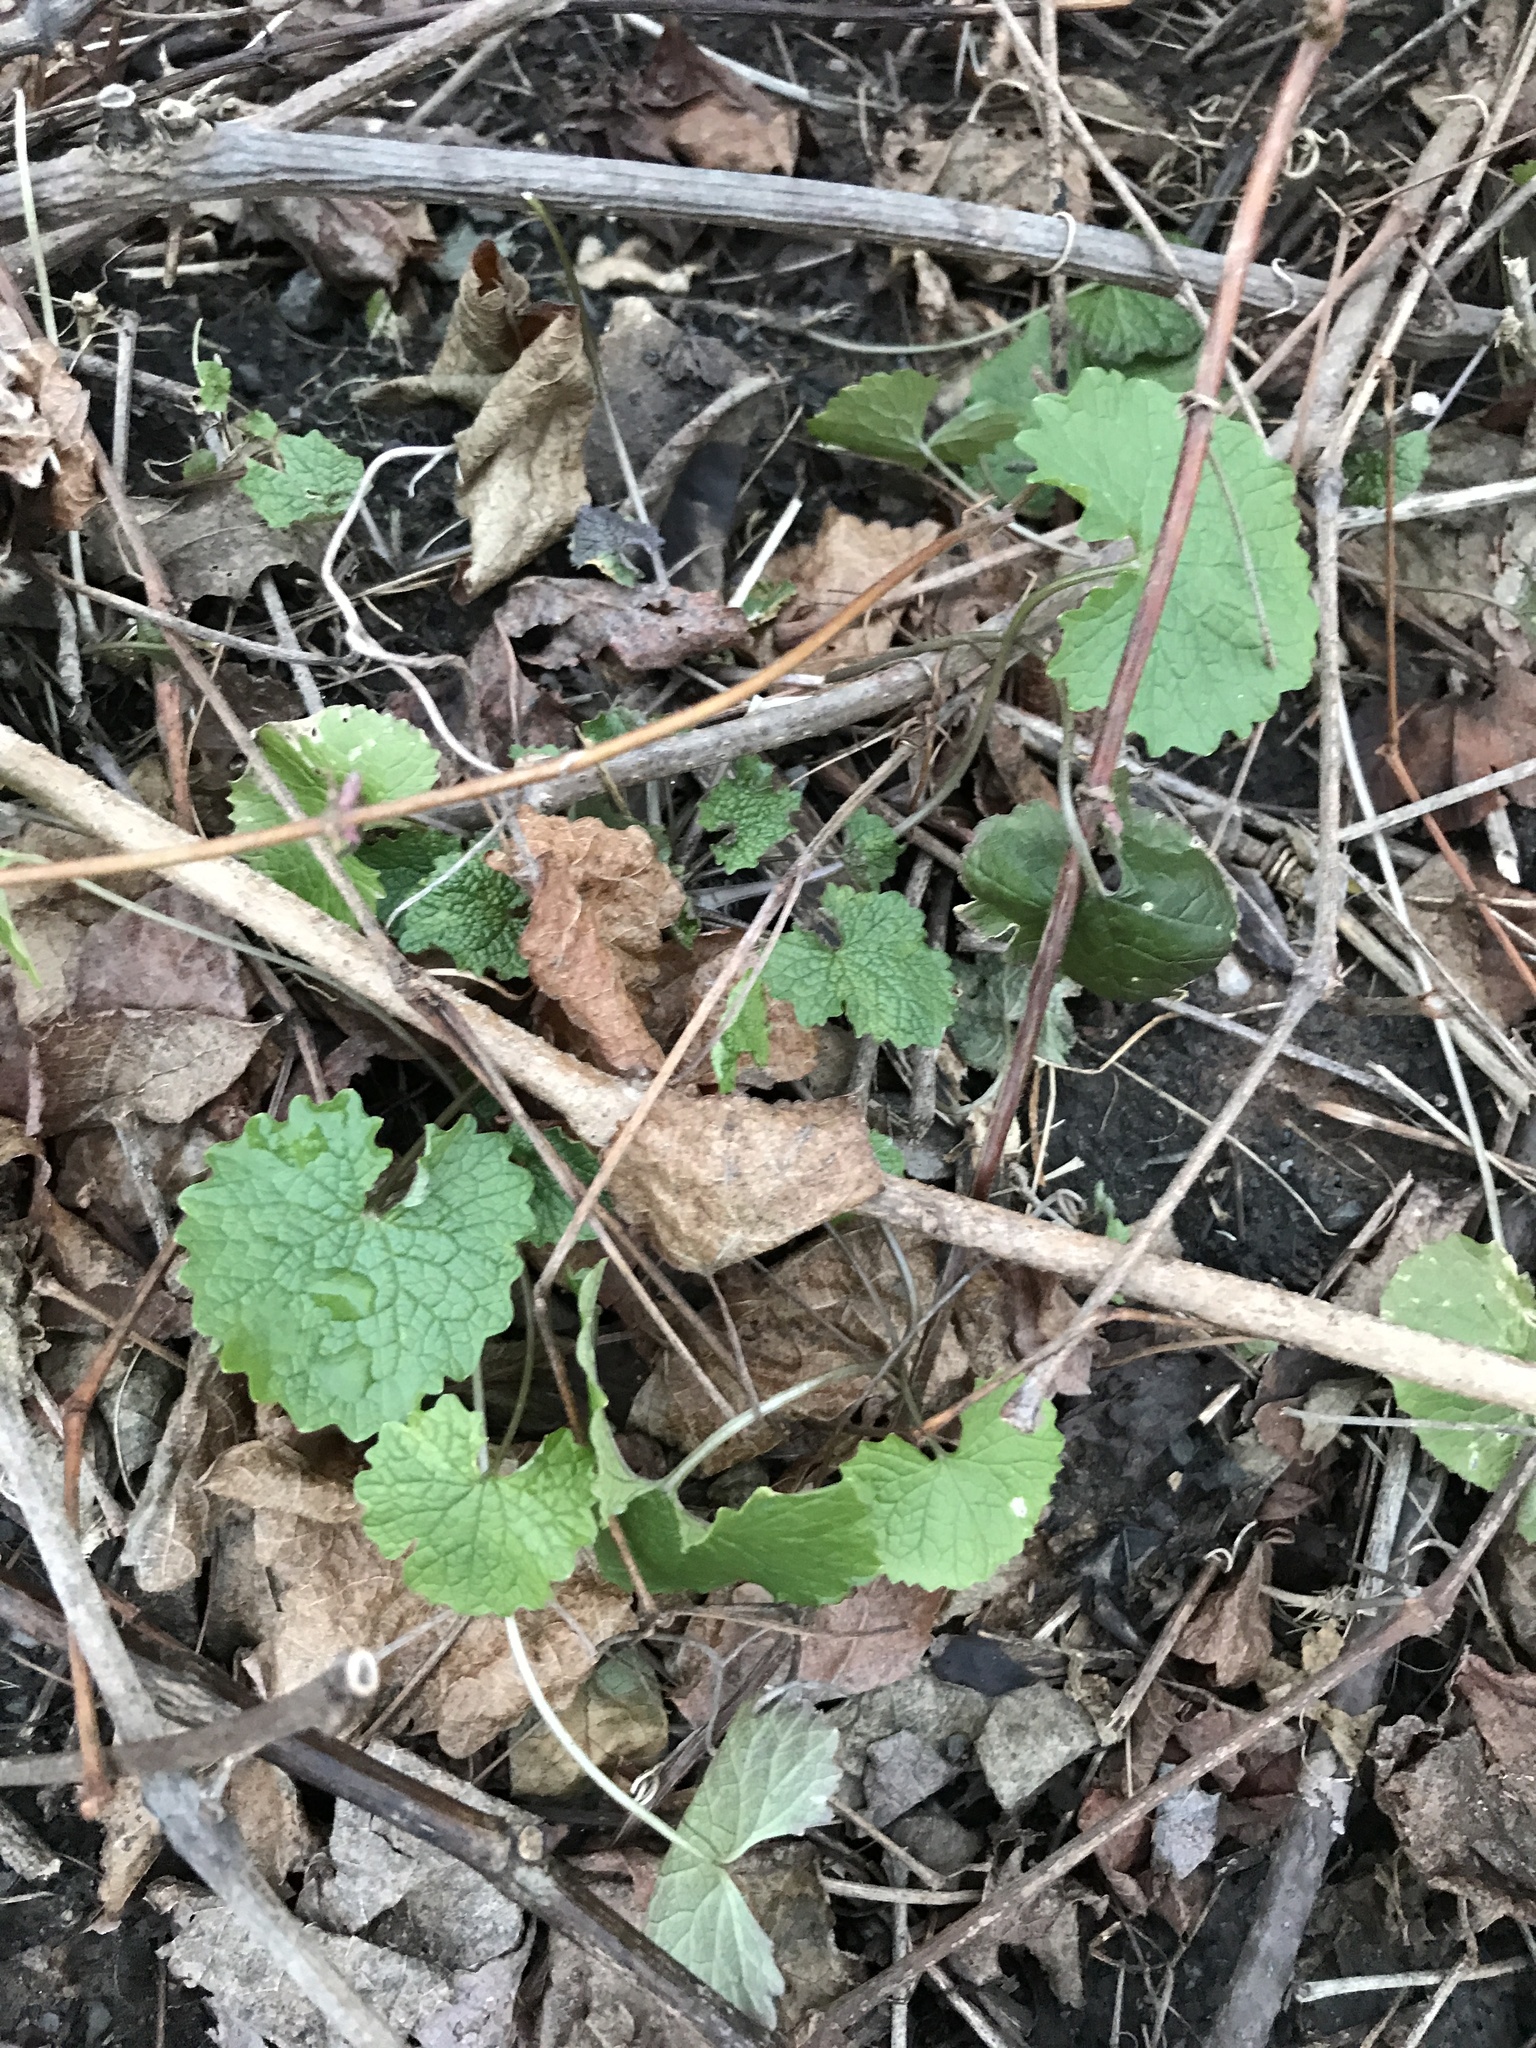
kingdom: Plantae
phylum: Tracheophyta
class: Magnoliopsida
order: Brassicales
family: Brassicaceae
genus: Alliaria
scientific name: Alliaria petiolata
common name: Garlic mustard
